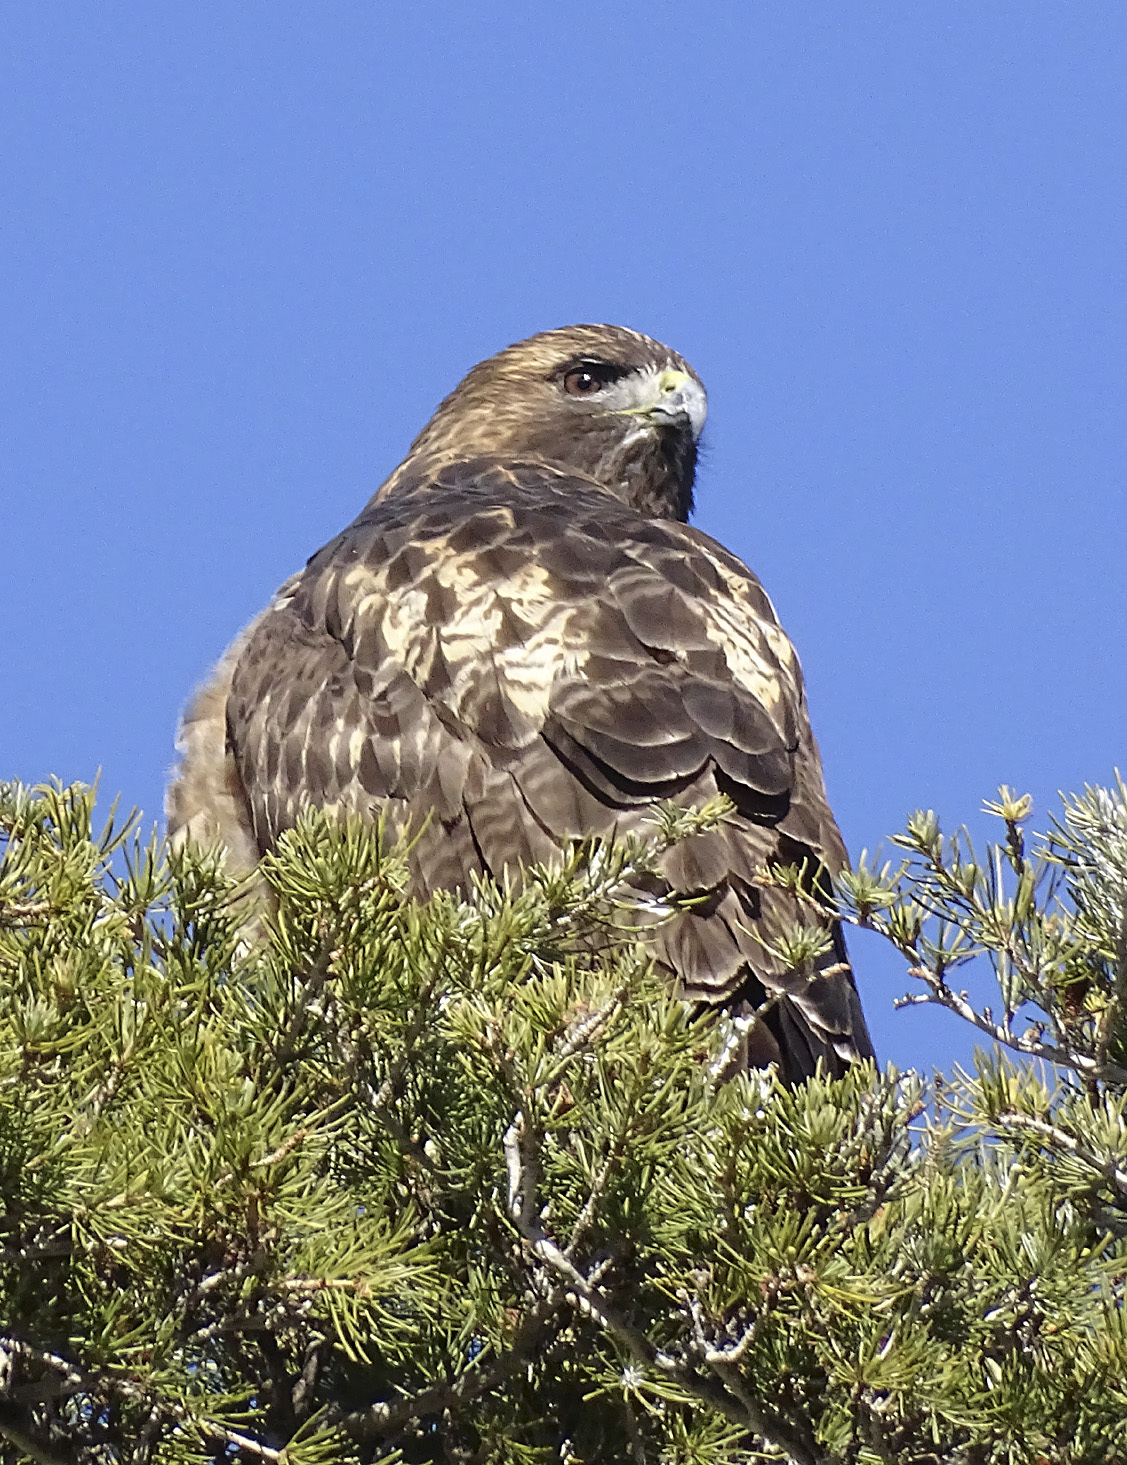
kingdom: Animalia
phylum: Chordata
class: Aves
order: Accipitriformes
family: Accipitridae
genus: Buteo
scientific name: Buteo jamaicensis
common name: Red-tailed hawk
